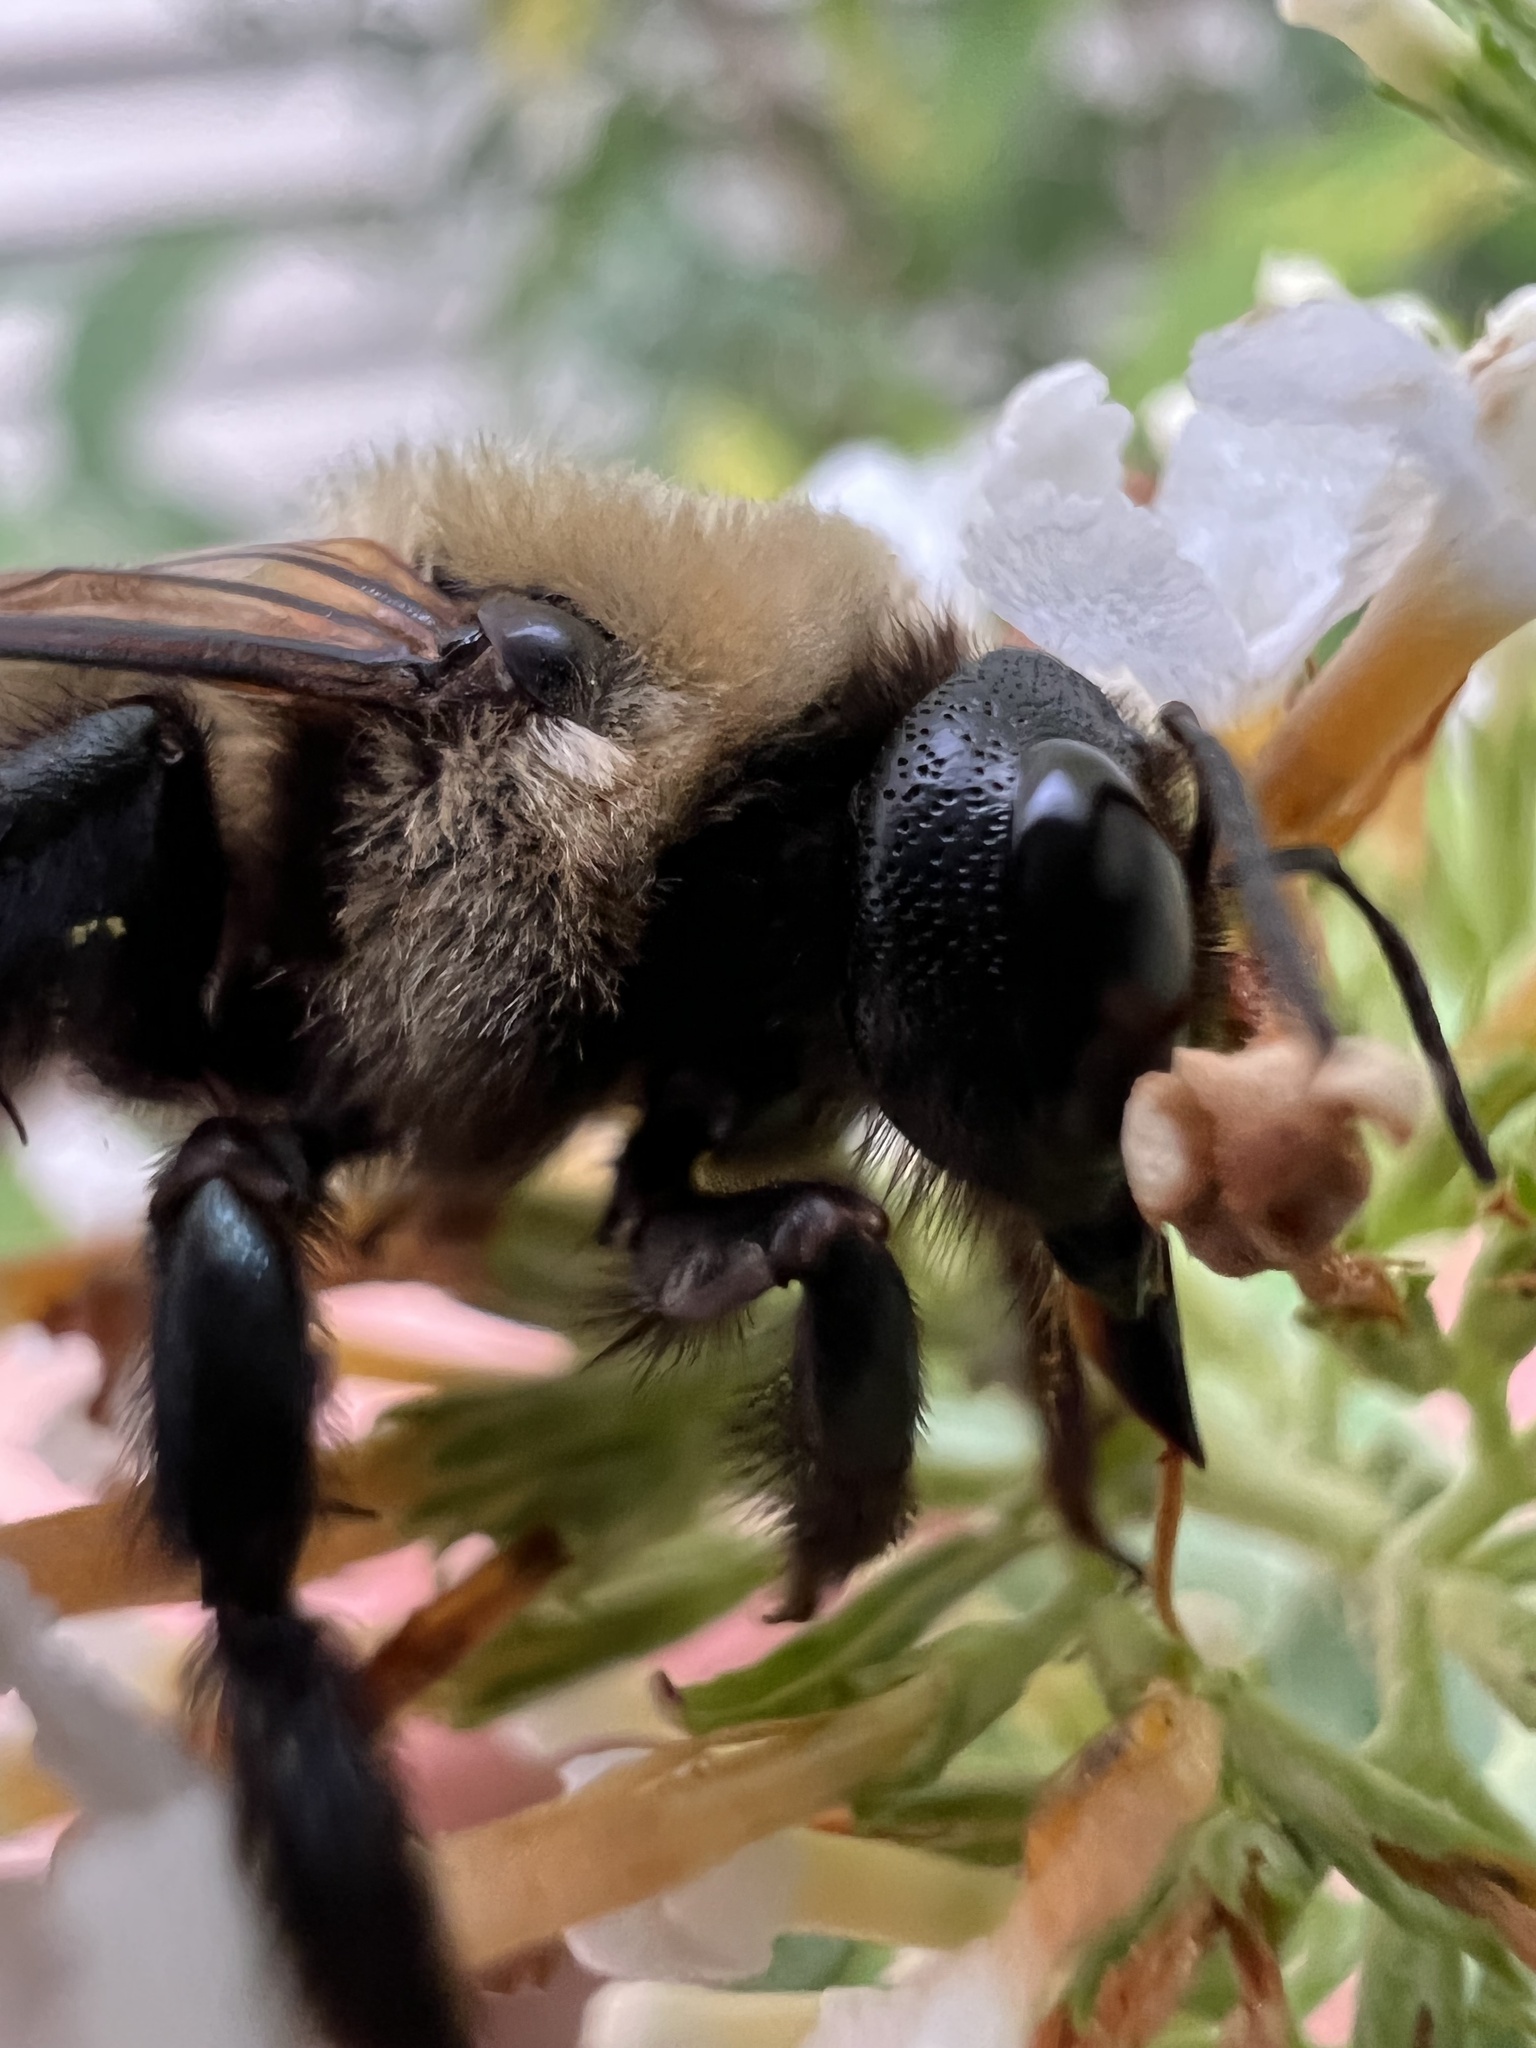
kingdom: Animalia
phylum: Arthropoda
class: Insecta
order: Hymenoptera
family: Apidae
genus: Xylocopa
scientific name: Xylocopa virginica
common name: Carpenter bee
